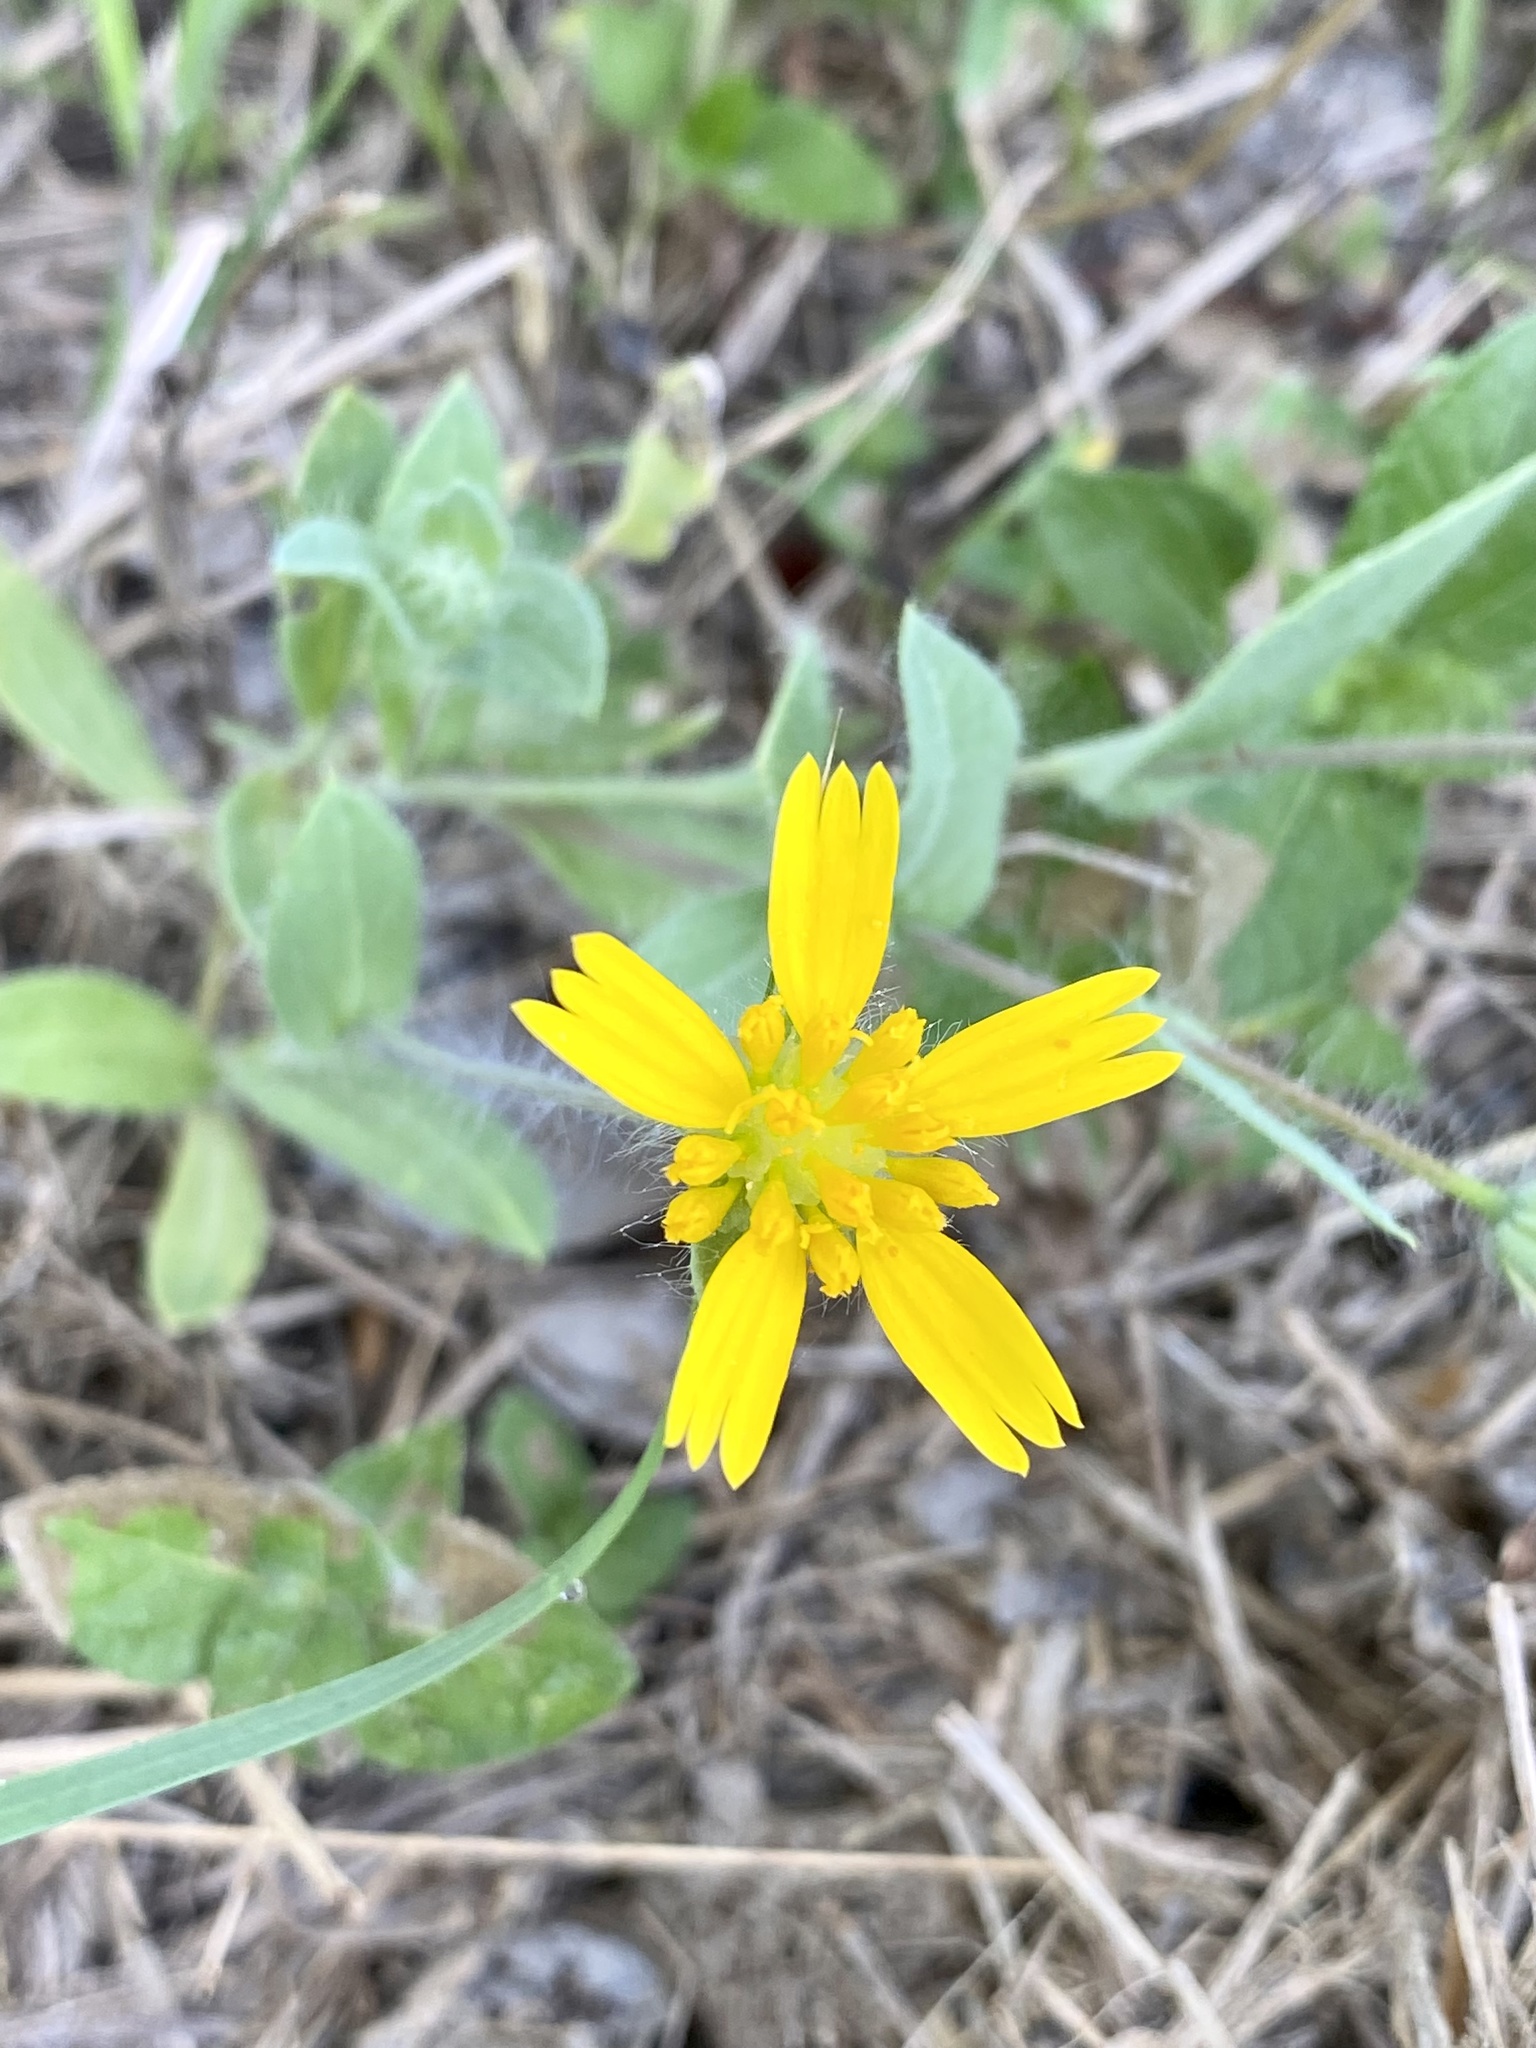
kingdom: Plantae
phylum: Tracheophyta
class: Magnoliopsida
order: Asterales
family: Asteraceae
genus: Amblyolepis
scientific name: Amblyolepis setigera
